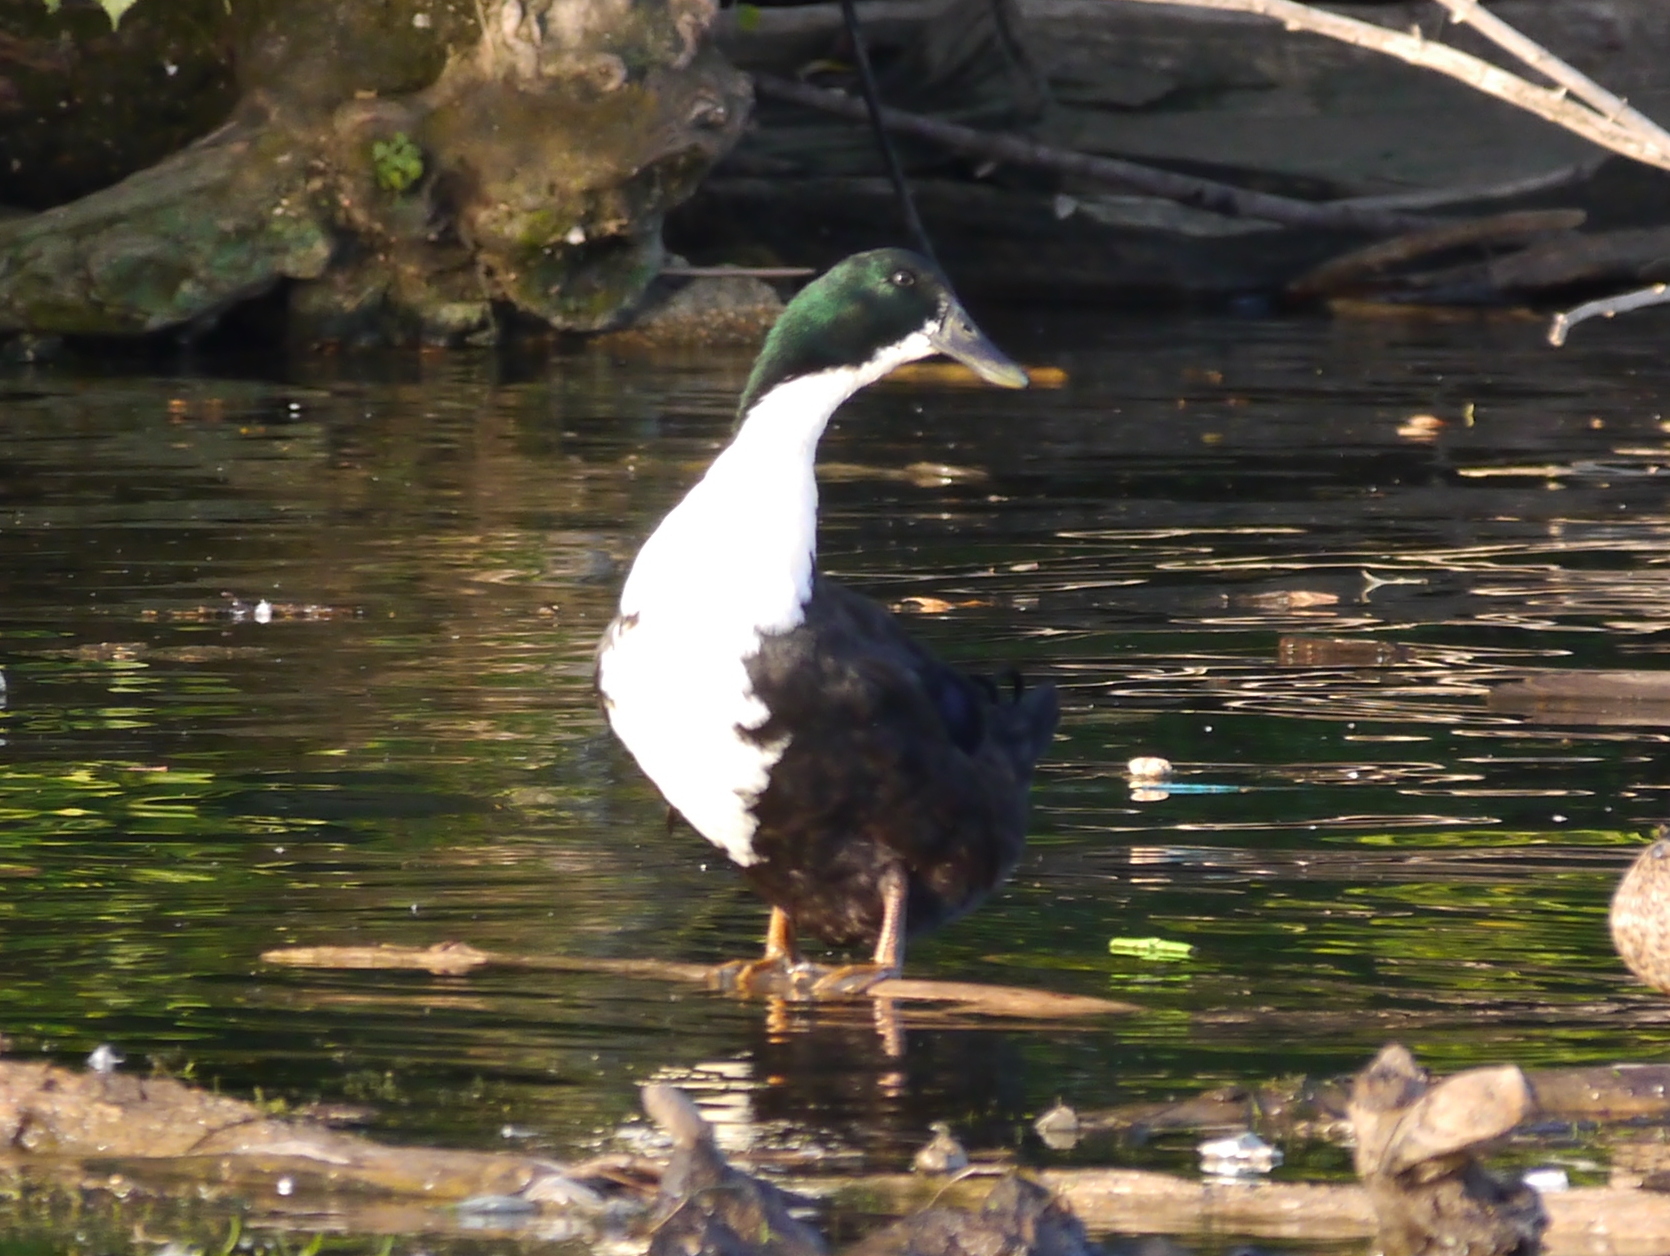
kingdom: Animalia
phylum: Chordata
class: Aves
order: Anseriformes
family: Anatidae
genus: Anas
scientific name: Anas platyrhynchos
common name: Mallard
